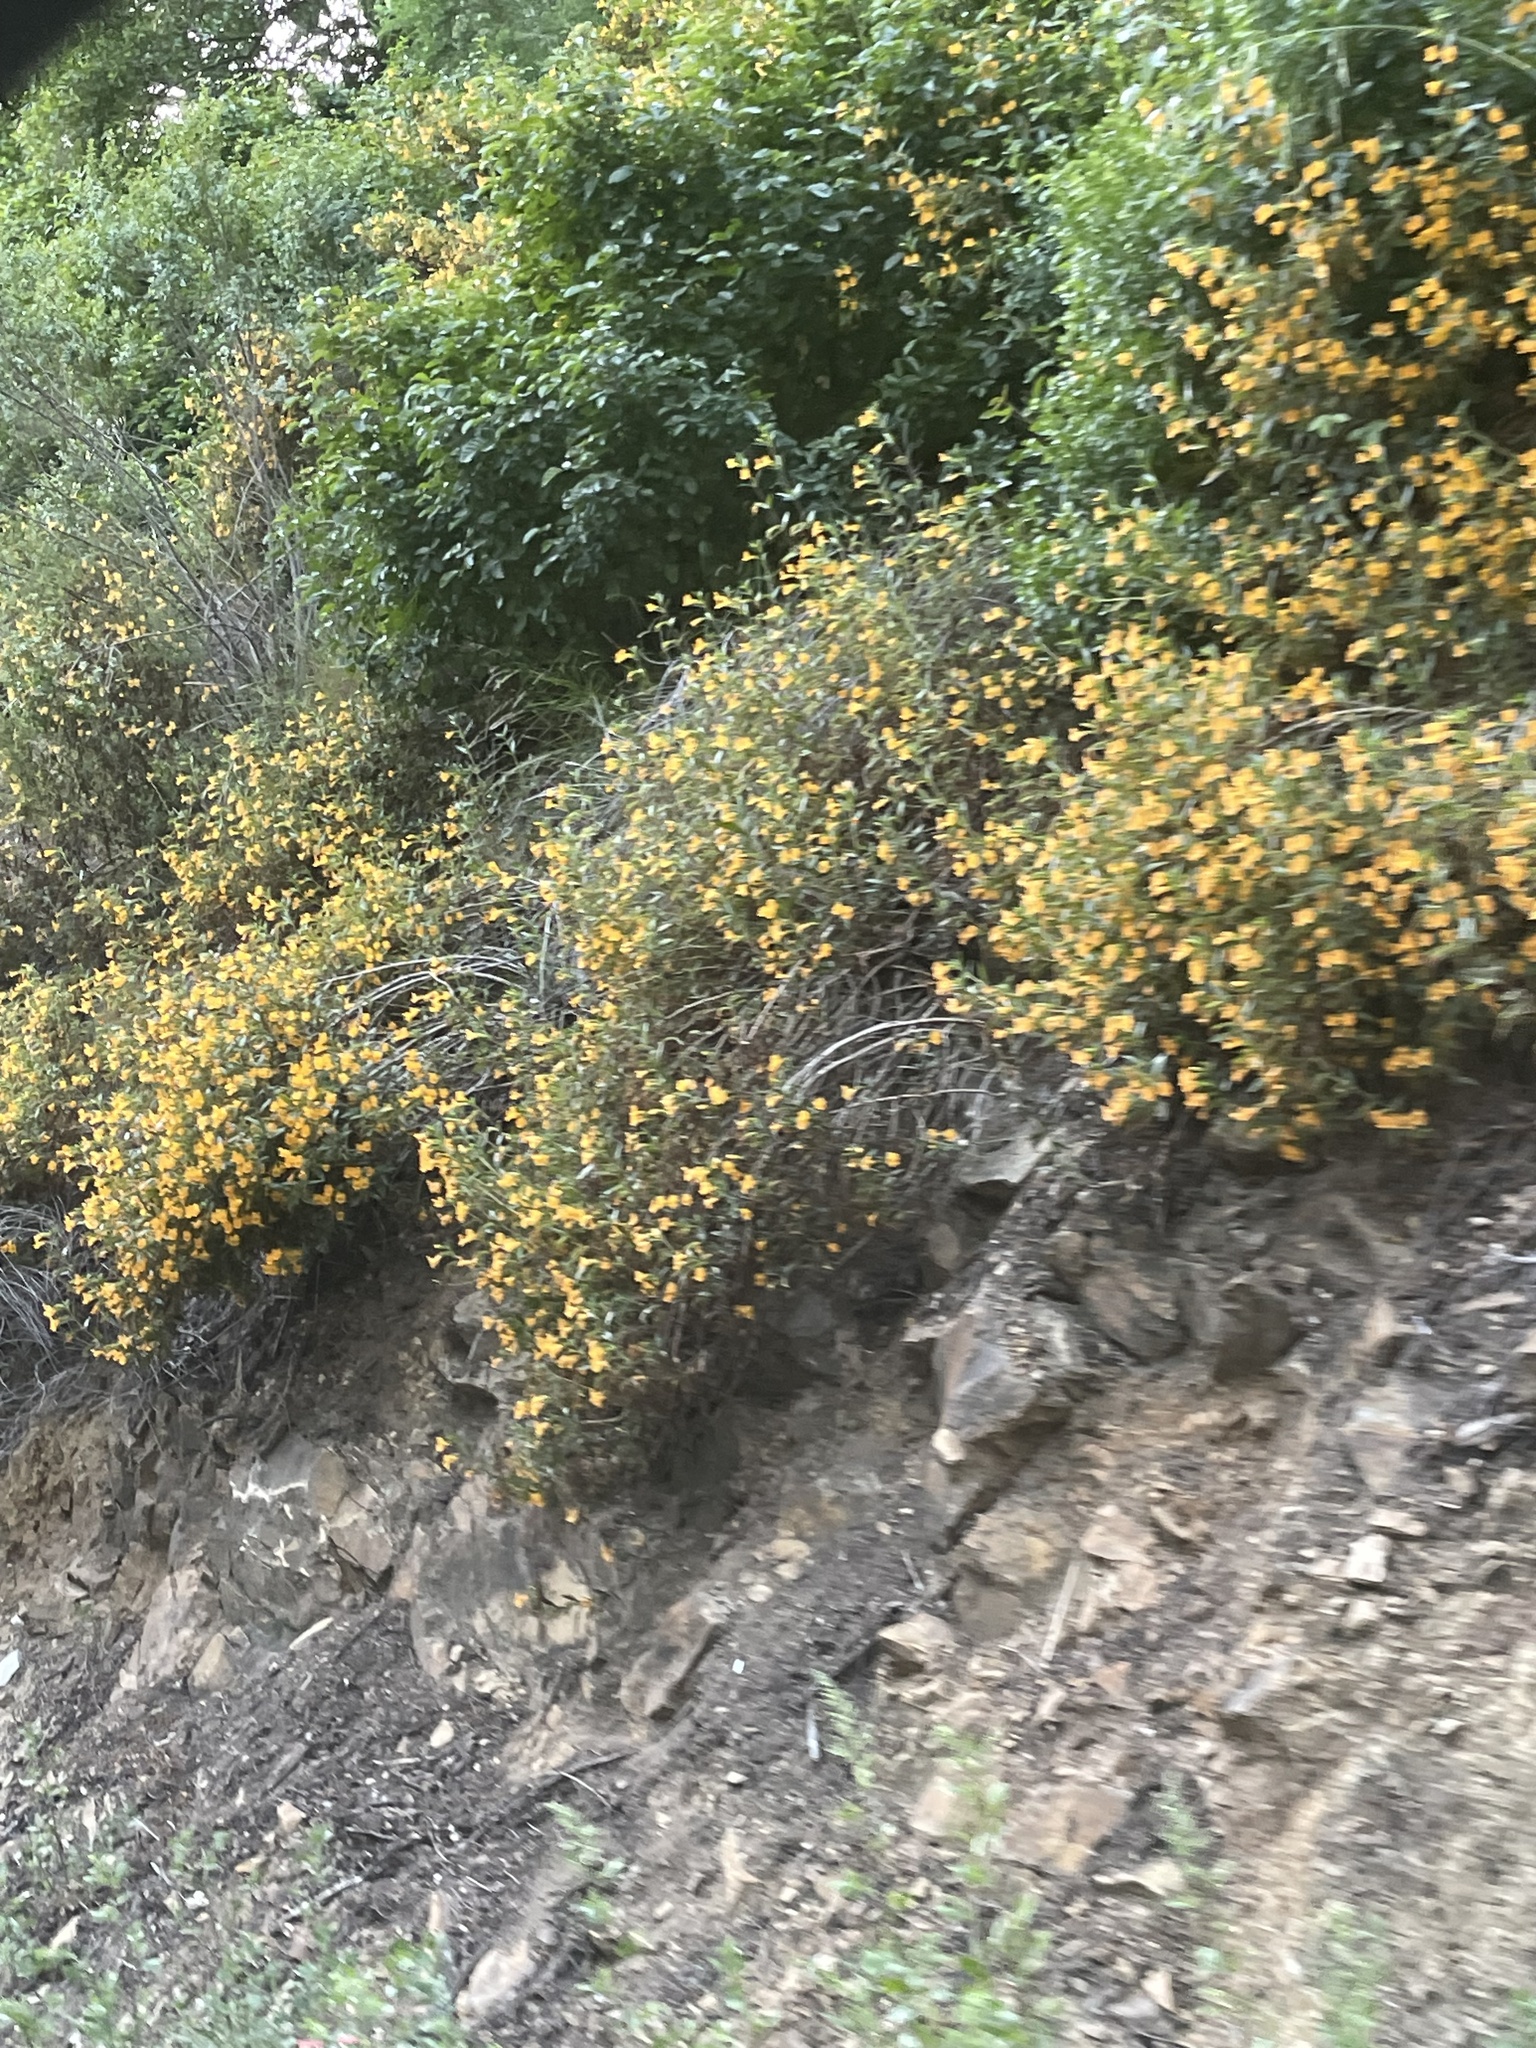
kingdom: Plantae
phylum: Tracheophyta
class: Magnoliopsida
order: Lamiales
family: Phrymaceae
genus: Diplacus
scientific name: Diplacus aurantiacus
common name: Bush monkey-flower
